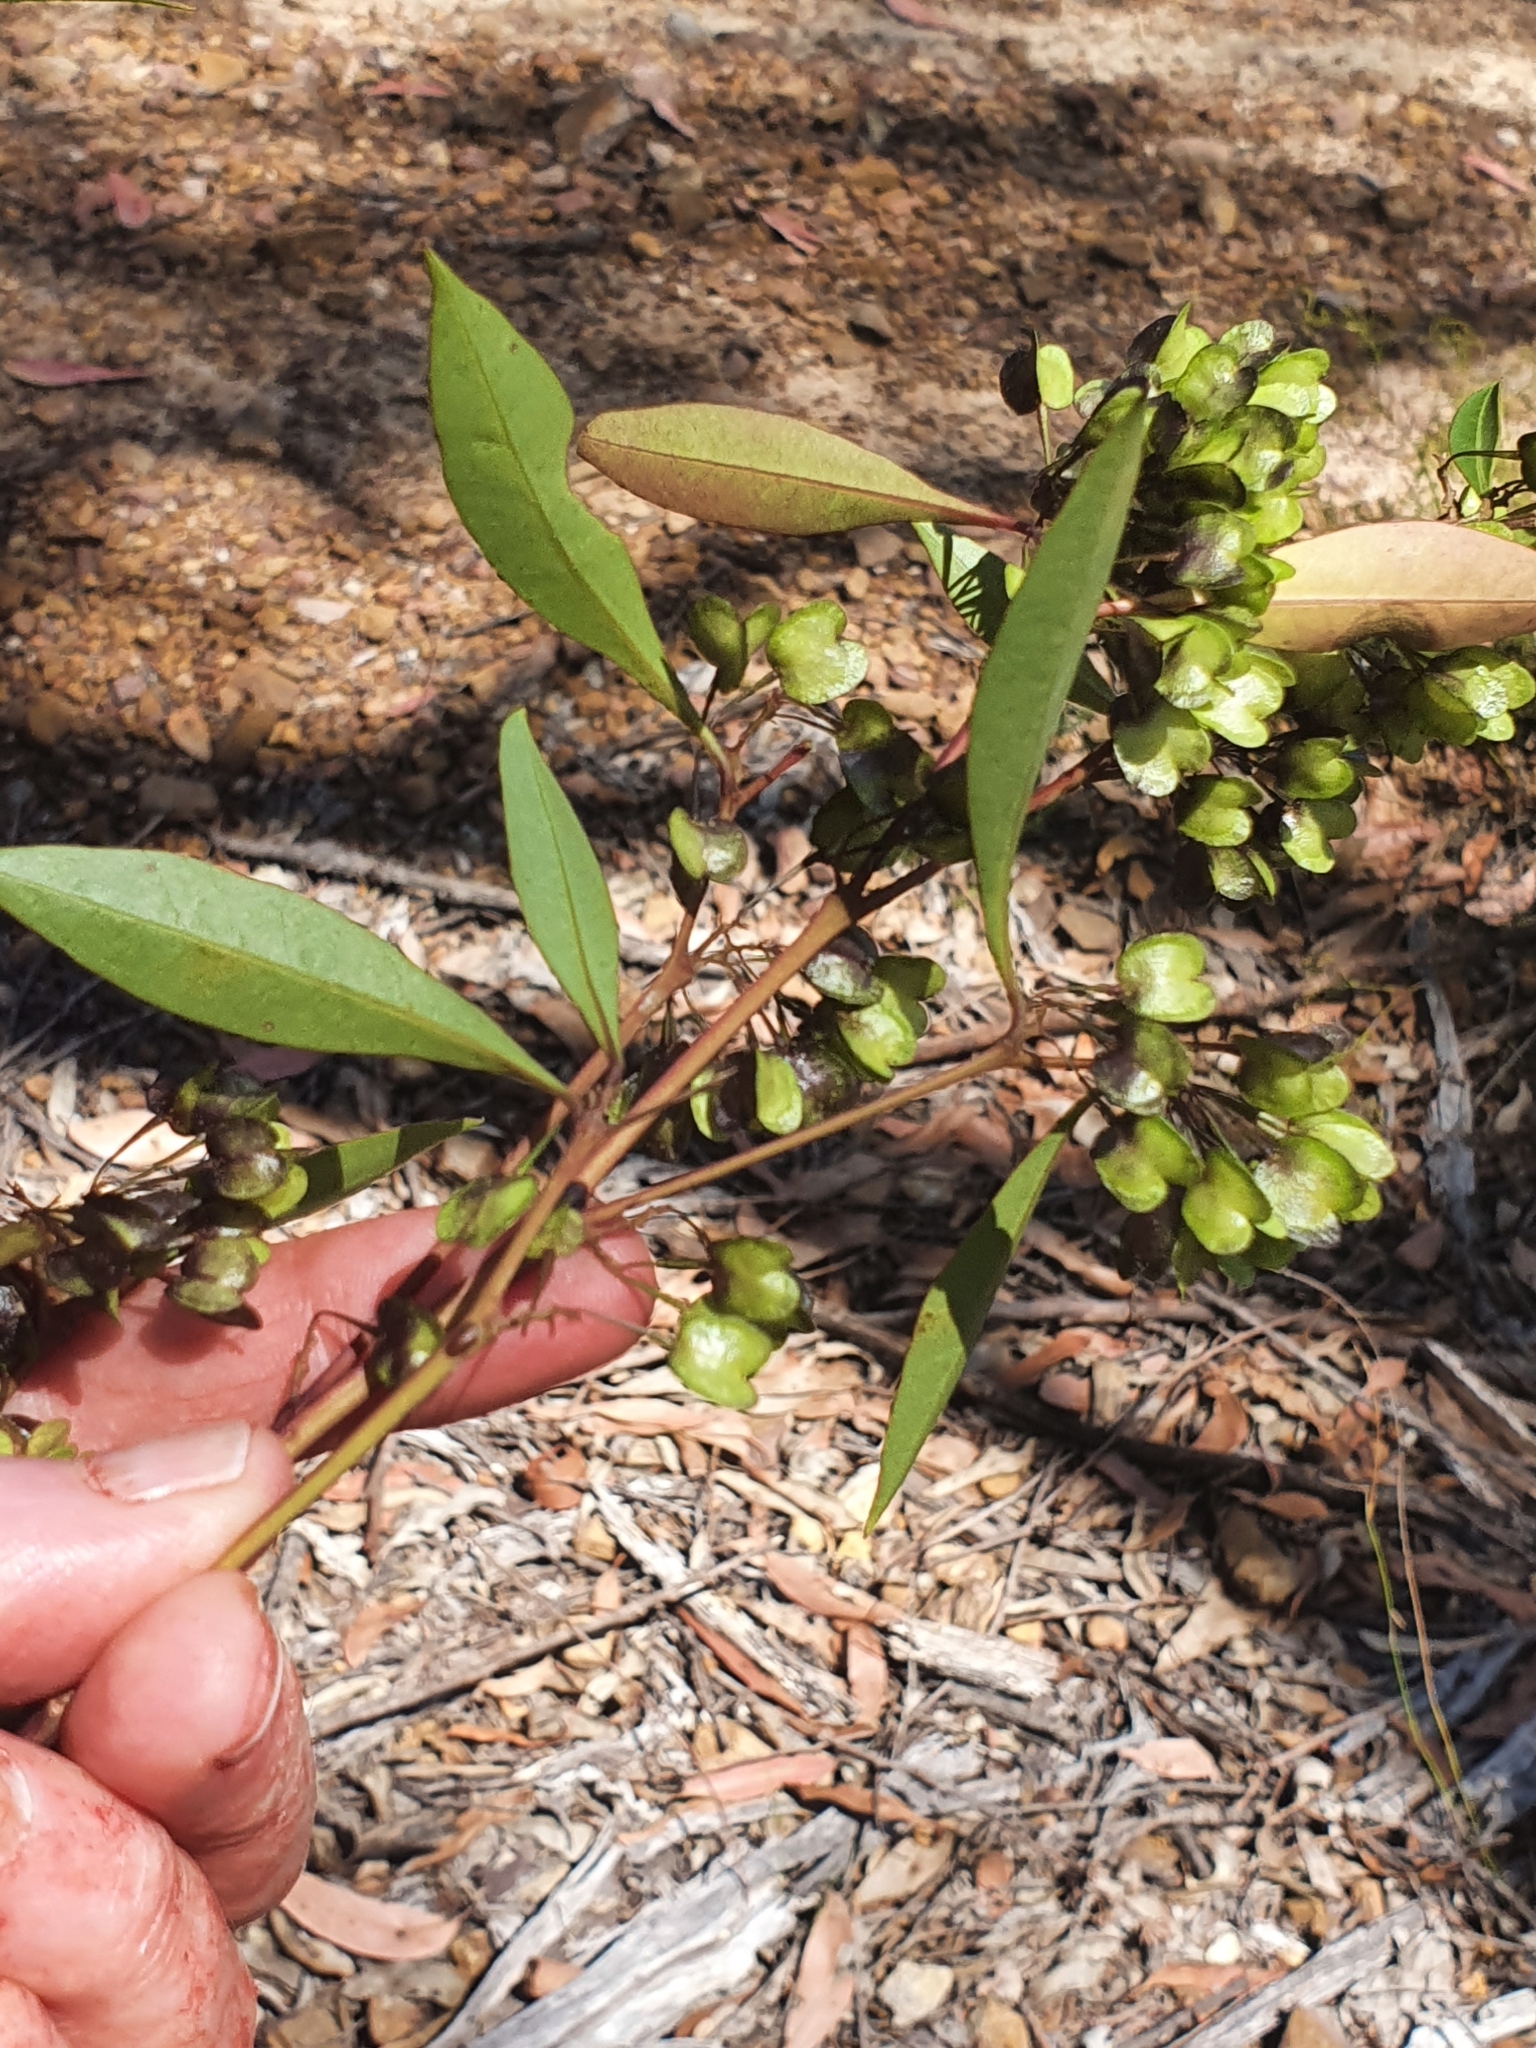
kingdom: Plantae
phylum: Tracheophyta
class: Magnoliopsida
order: Sapindales
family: Sapindaceae
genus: Dodonaea
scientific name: Dodonaea triquetra
